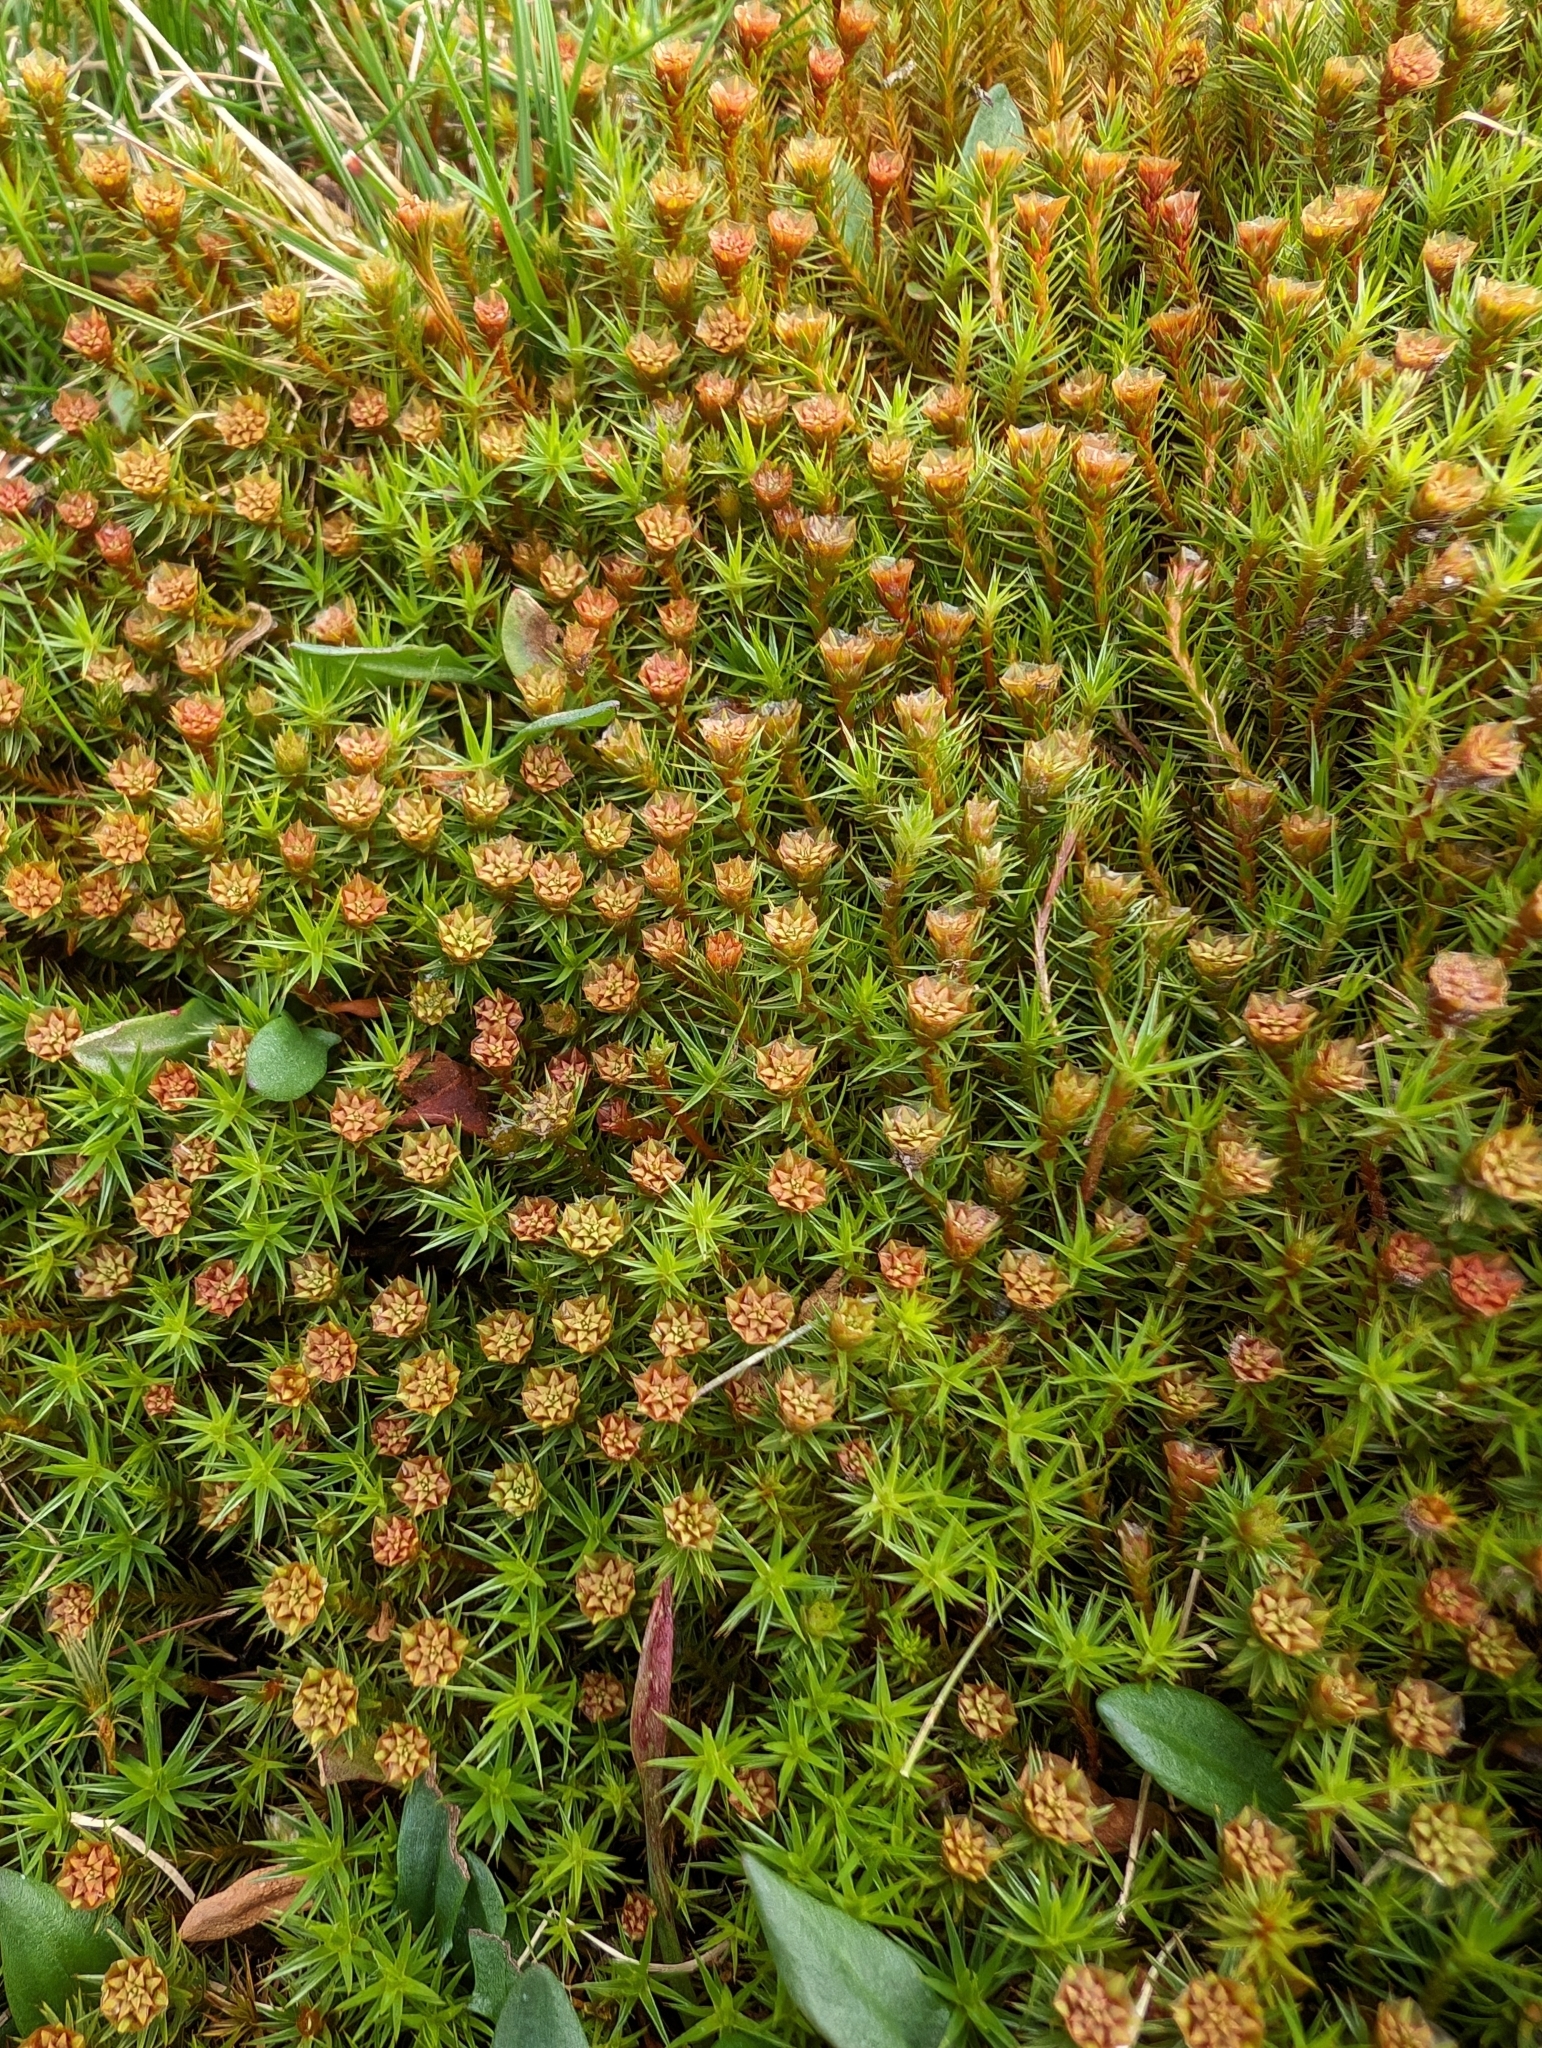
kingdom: Plantae
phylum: Bryophyta
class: Polytrichopsida
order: Polytrichales
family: Polytrichaceae
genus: Polytrichum
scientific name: Polytrichum juniperinum
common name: Juniper haircap moss
